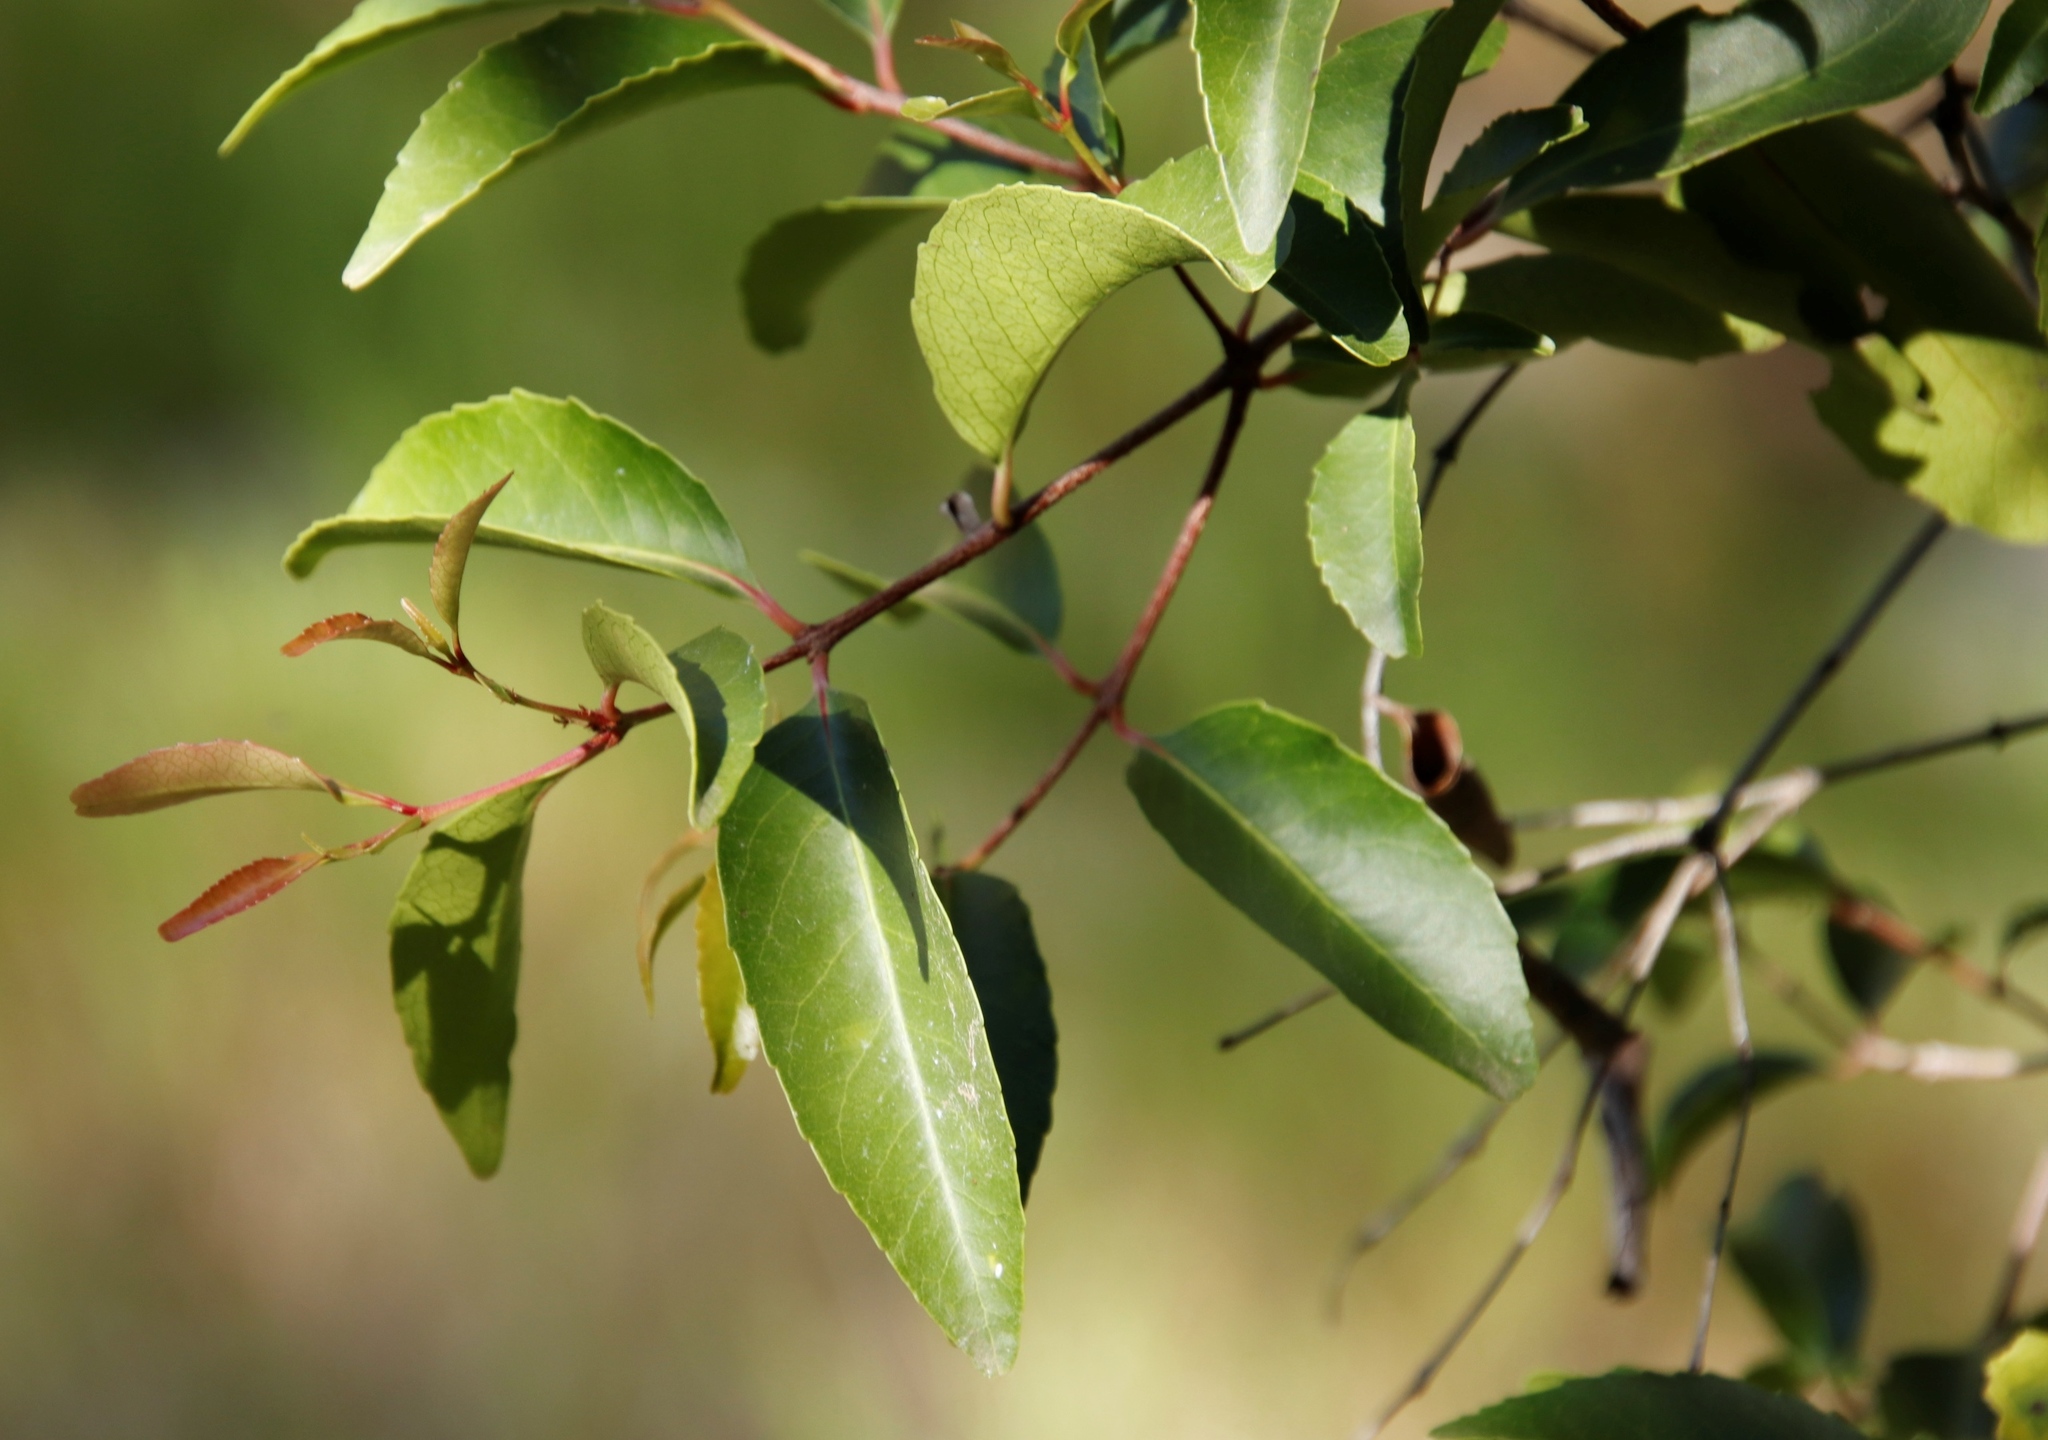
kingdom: Plantae
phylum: Tracheophyta
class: Magnoliopsida
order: Celastrales
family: Celastraceae
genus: Cassine
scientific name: Cassine peragua
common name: Cape saffron
